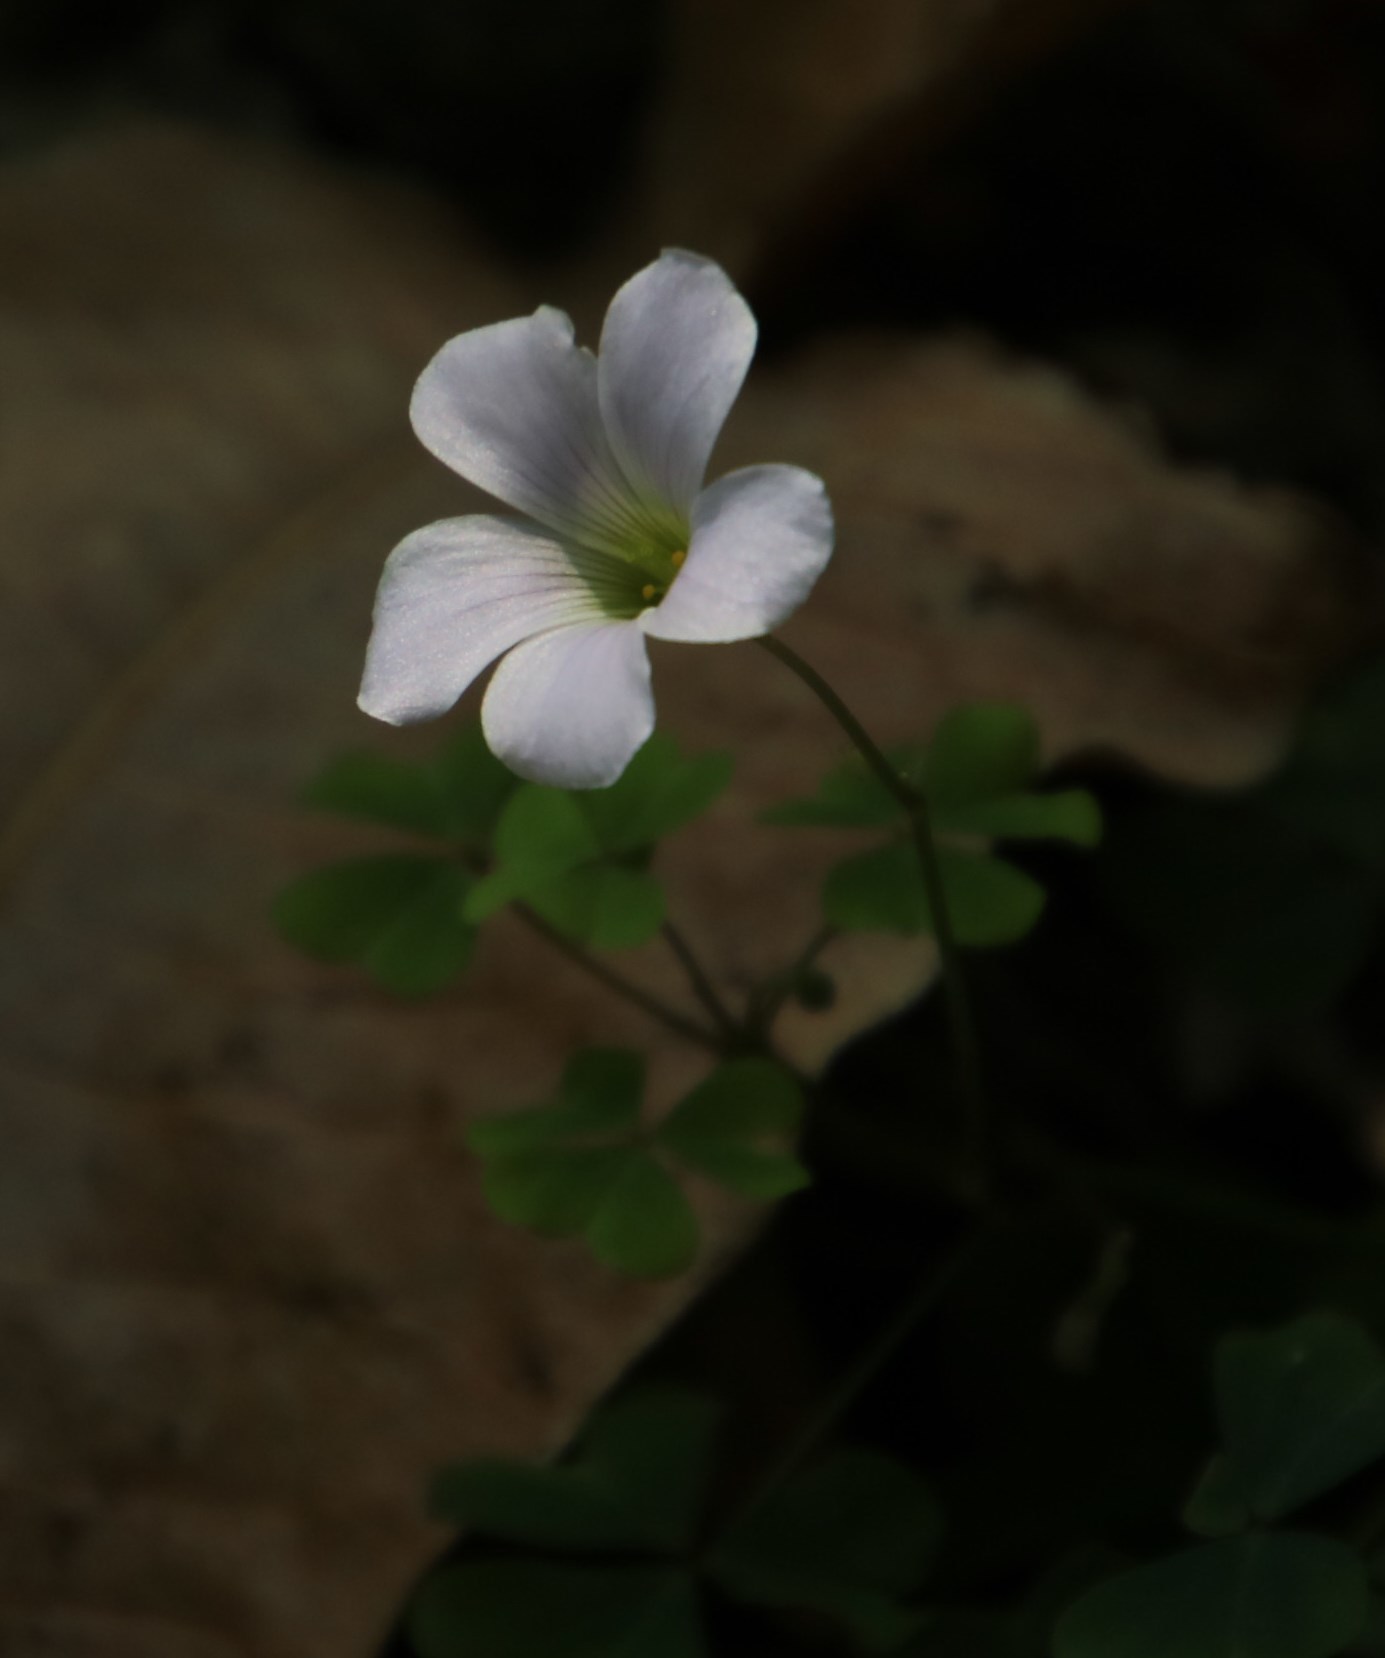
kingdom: Plantae
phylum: Tracheophyta
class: Magnoliopsida
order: Oxalidales
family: Oxalidaceae
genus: Oxalis
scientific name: Oxalis incarnata
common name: Pale pink-sorrel
